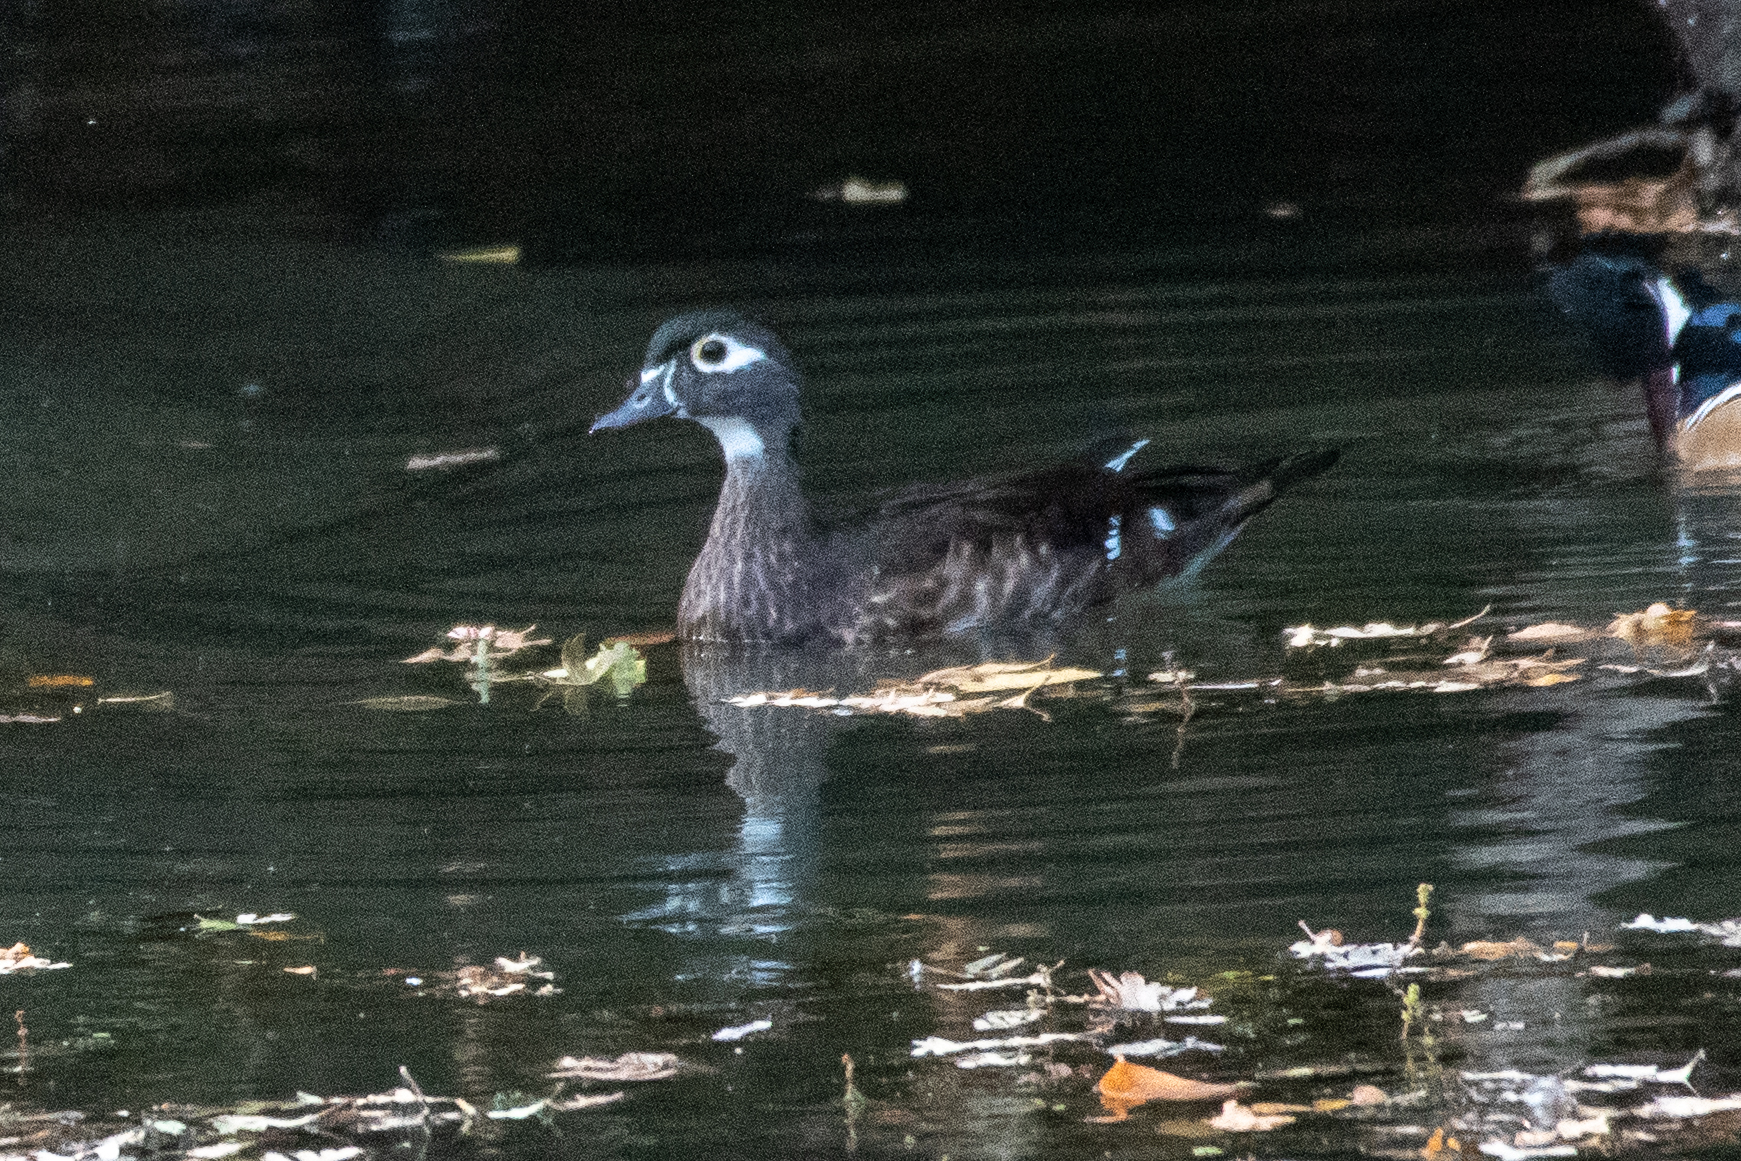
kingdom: Animalia
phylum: Chordata
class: Aves
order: Anseriformes
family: Anatidae
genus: Aix
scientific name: Aix sponsa
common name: Wood duck
